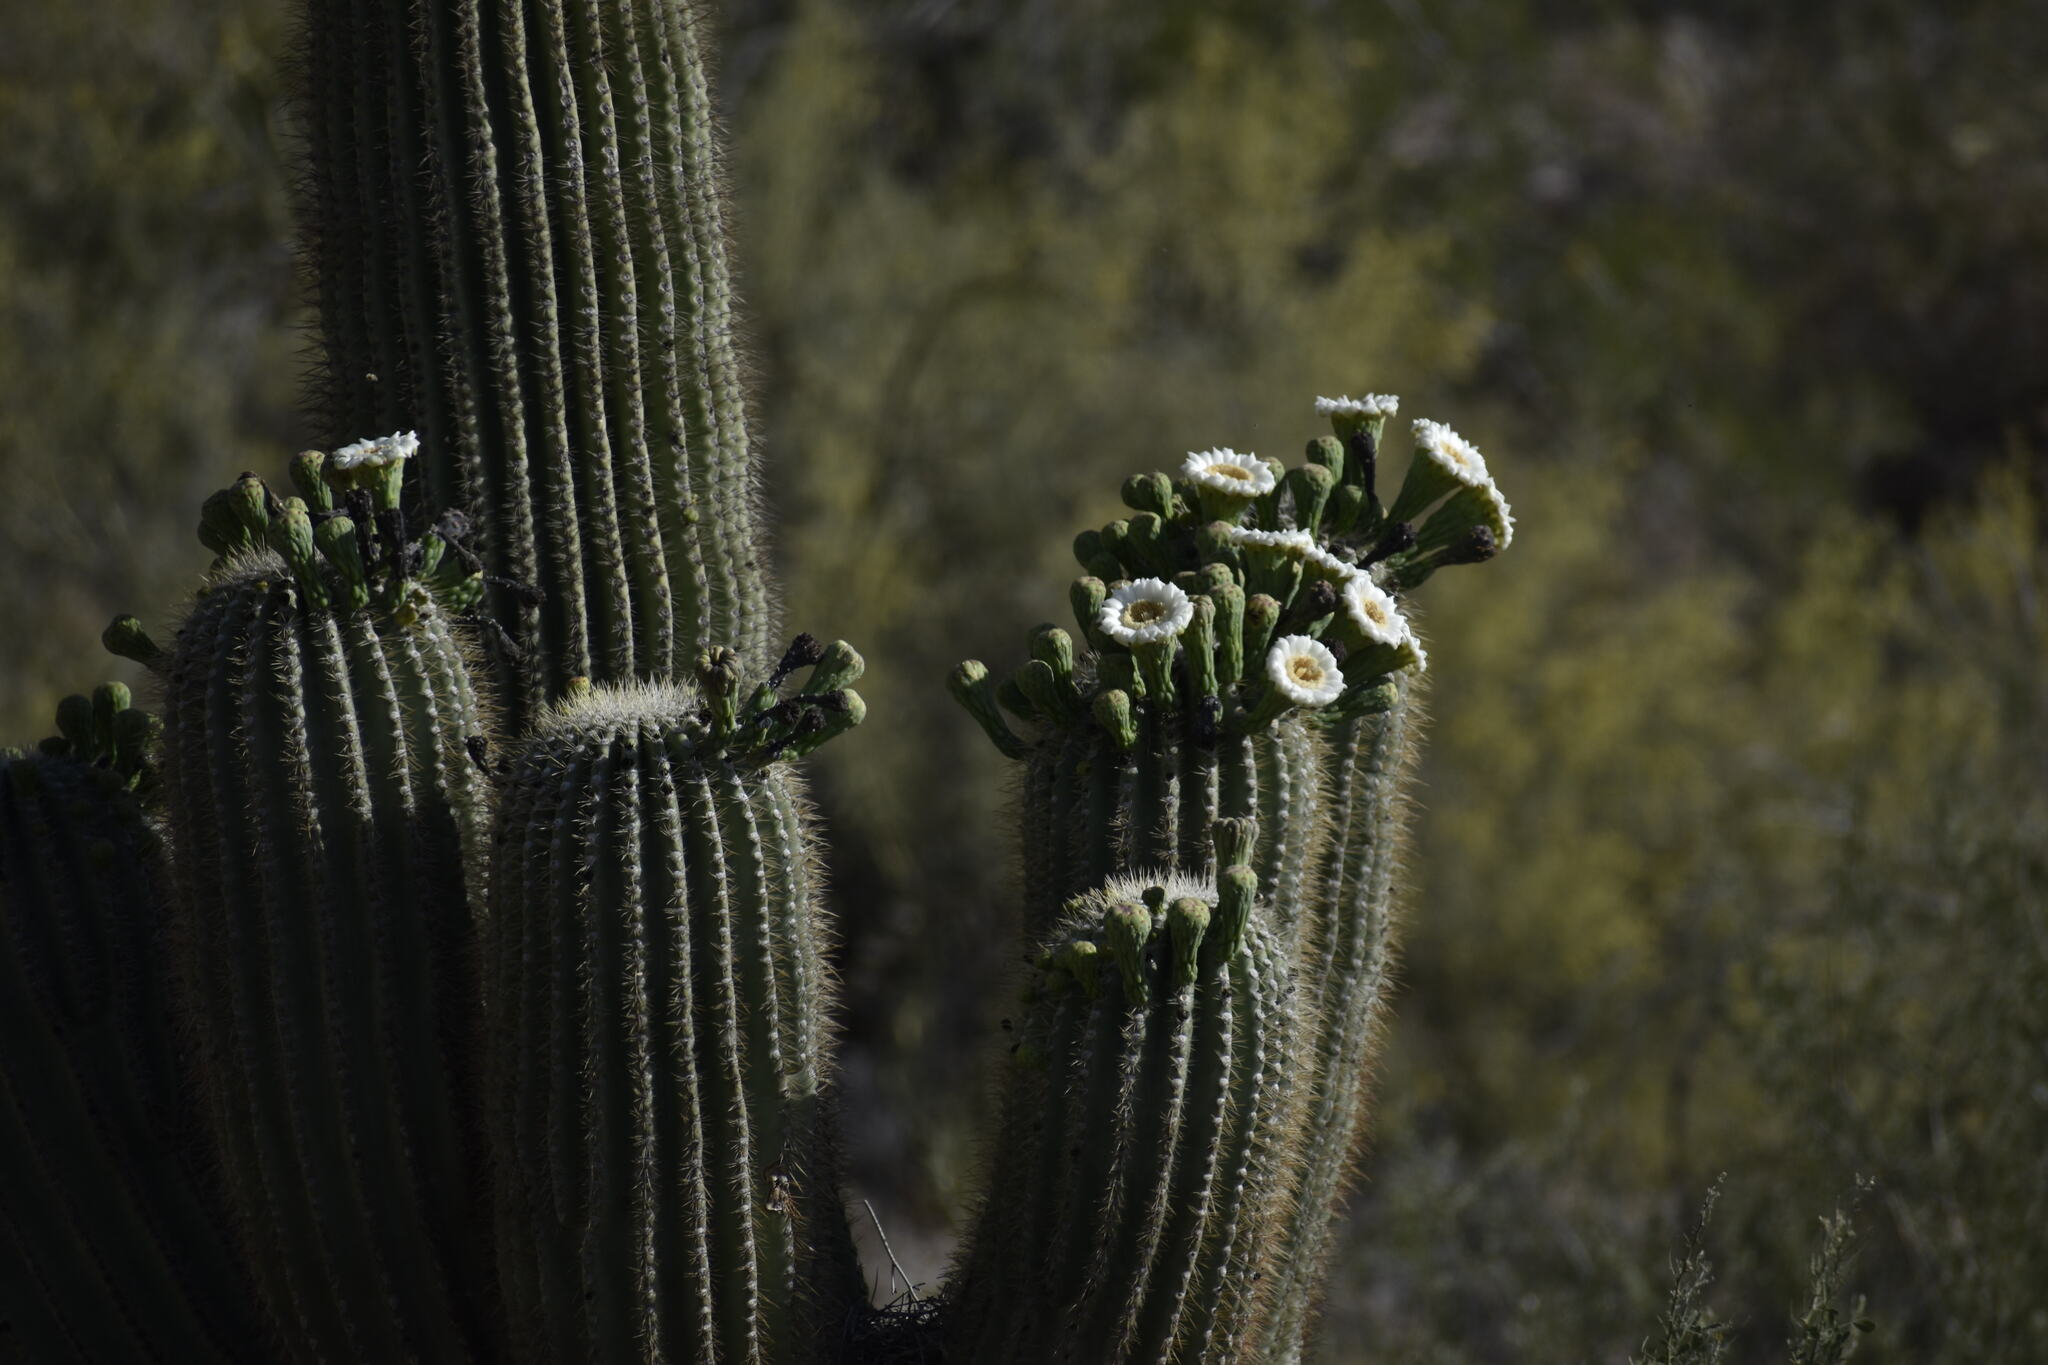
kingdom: Plantae
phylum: Tracheophyta
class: Magnoliopsida
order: Caryophyllales
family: Cactaceae
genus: Carnegiea
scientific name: Carnegiea gigantea
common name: Saguaro
